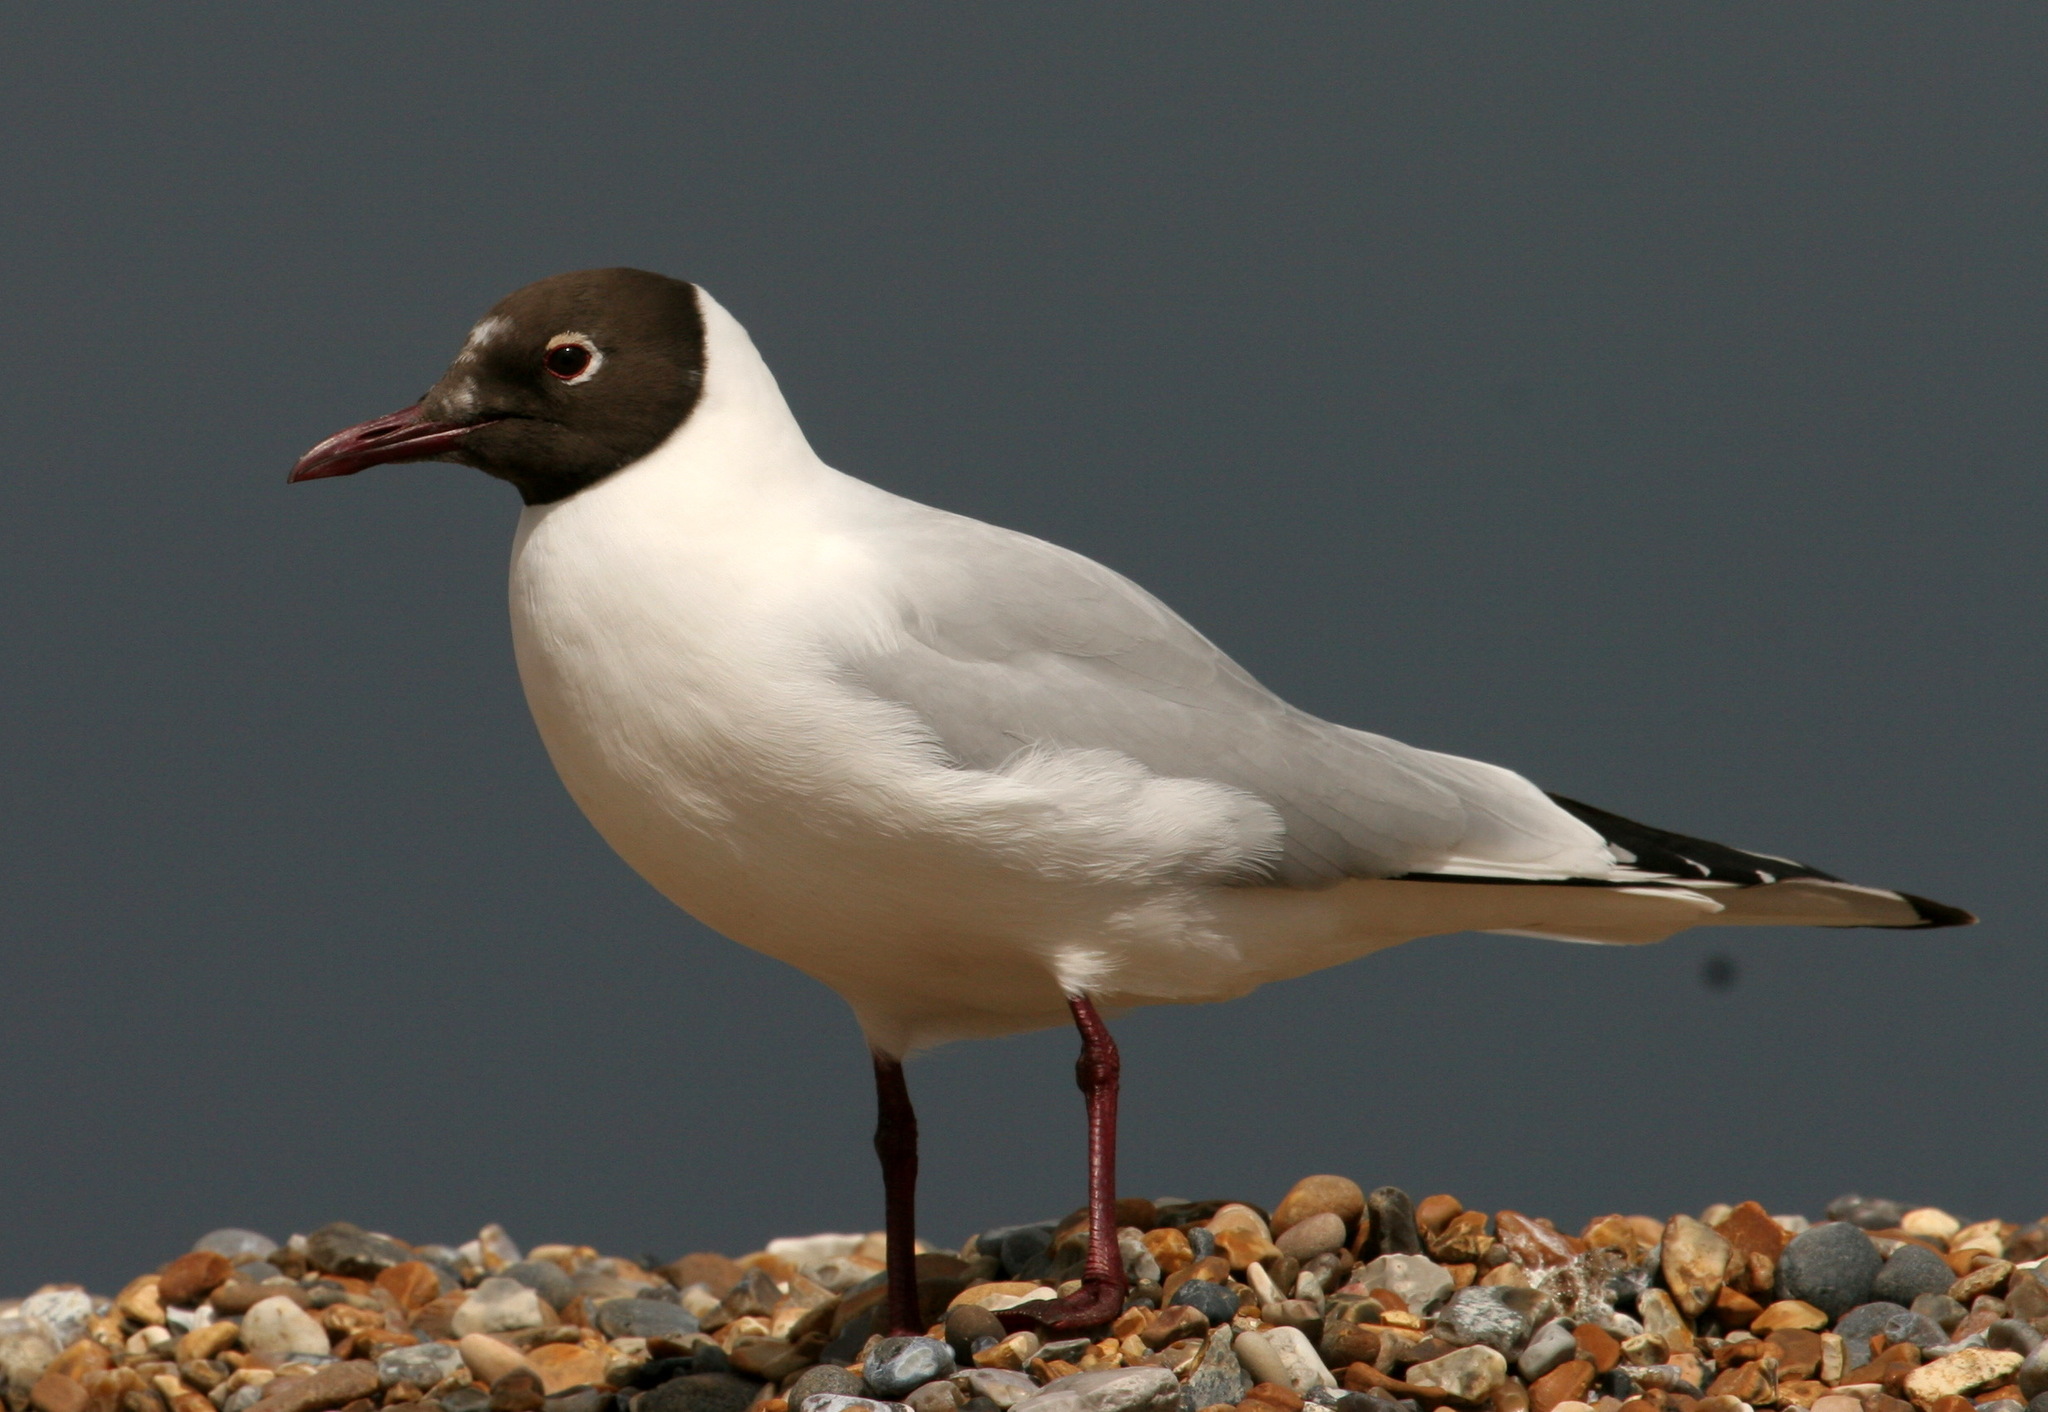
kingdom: Animalia
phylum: Chordata
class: Aves
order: Charadriiformes
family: Laridae
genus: Chroicocephalus
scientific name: Chroicocephalus ridibundus
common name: Black-headed gull
